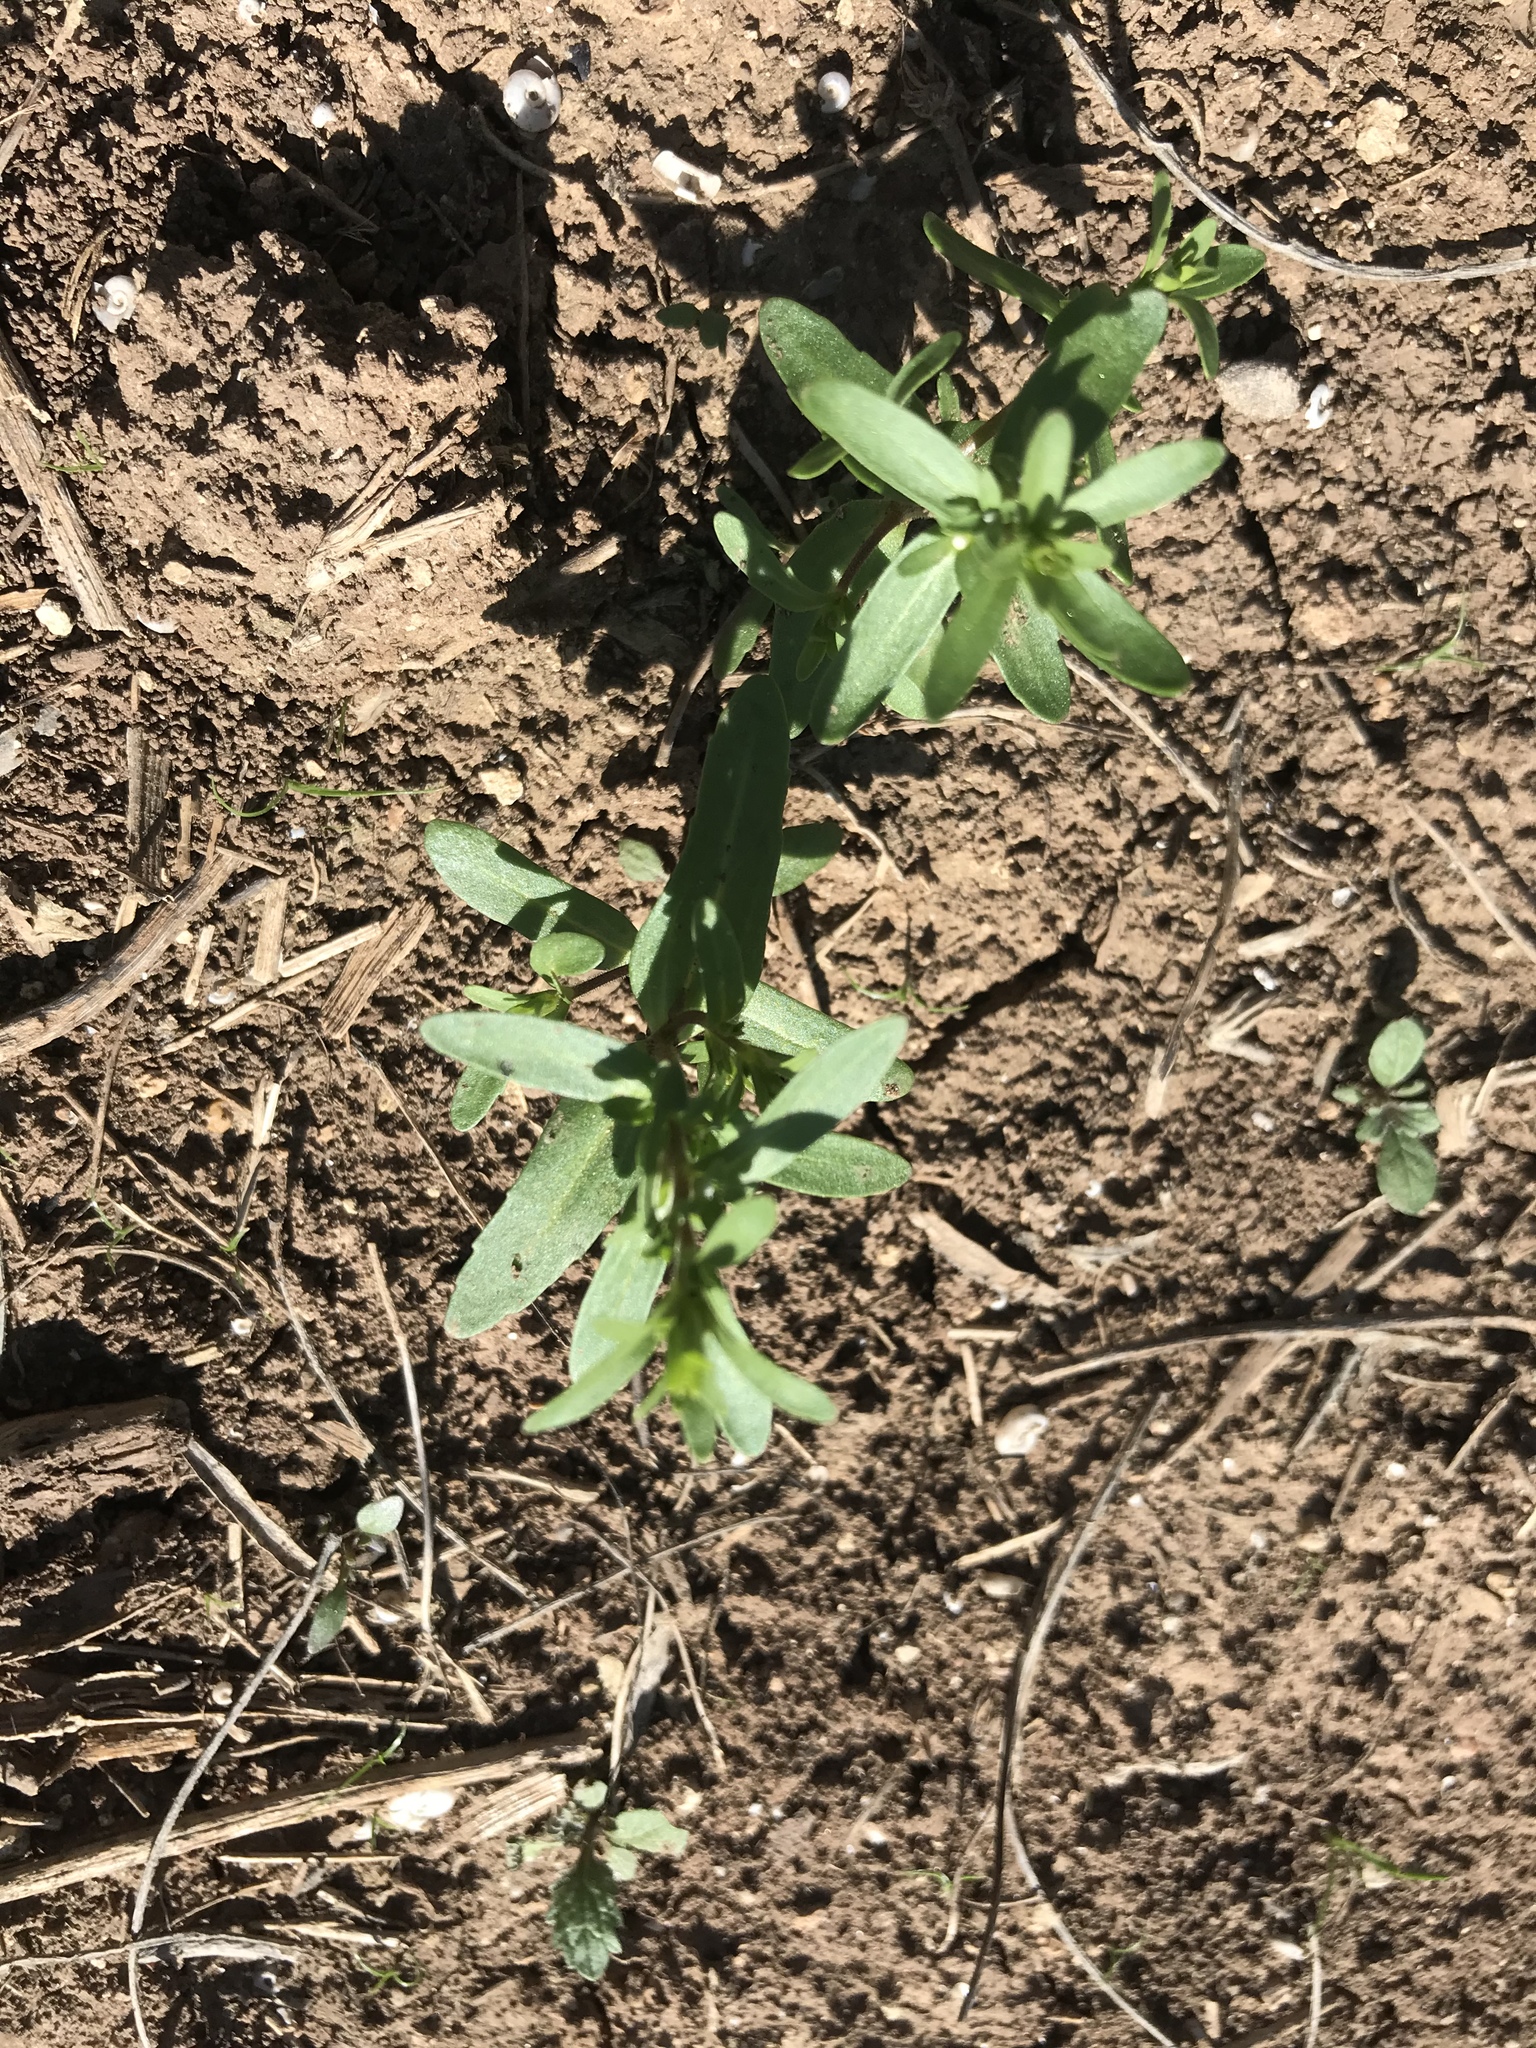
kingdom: Plantae
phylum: Tracheophyta
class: Magnoliopsida
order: Lamiales
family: Plantaginaceae
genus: Veronica
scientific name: Veronica peregrina
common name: Neckweed
